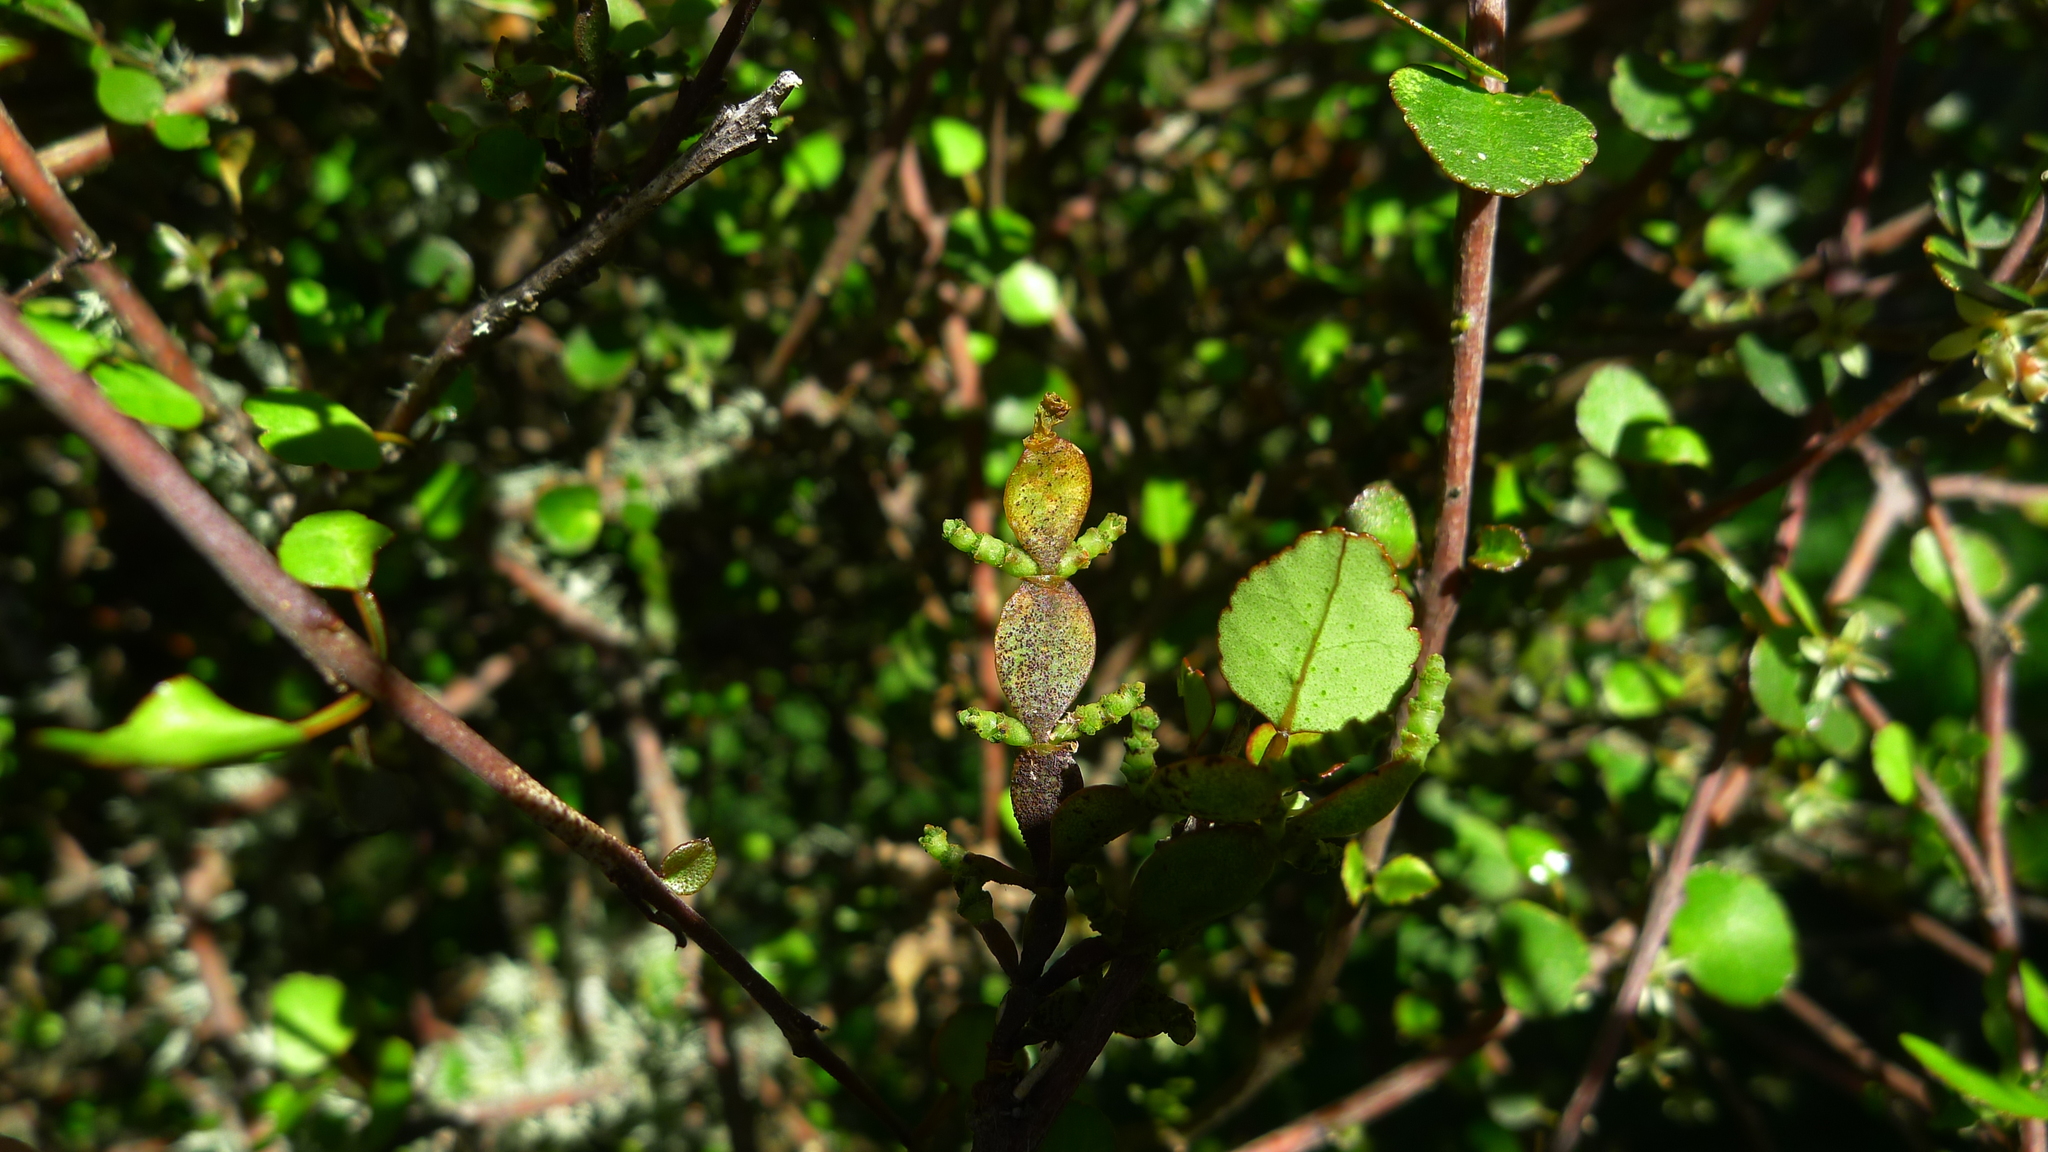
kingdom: Plantae
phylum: Tracheophyta
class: Magnoliopsida
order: Santalales
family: Viscaceae
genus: Korthalsella
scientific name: Korthalsella lindsayi
